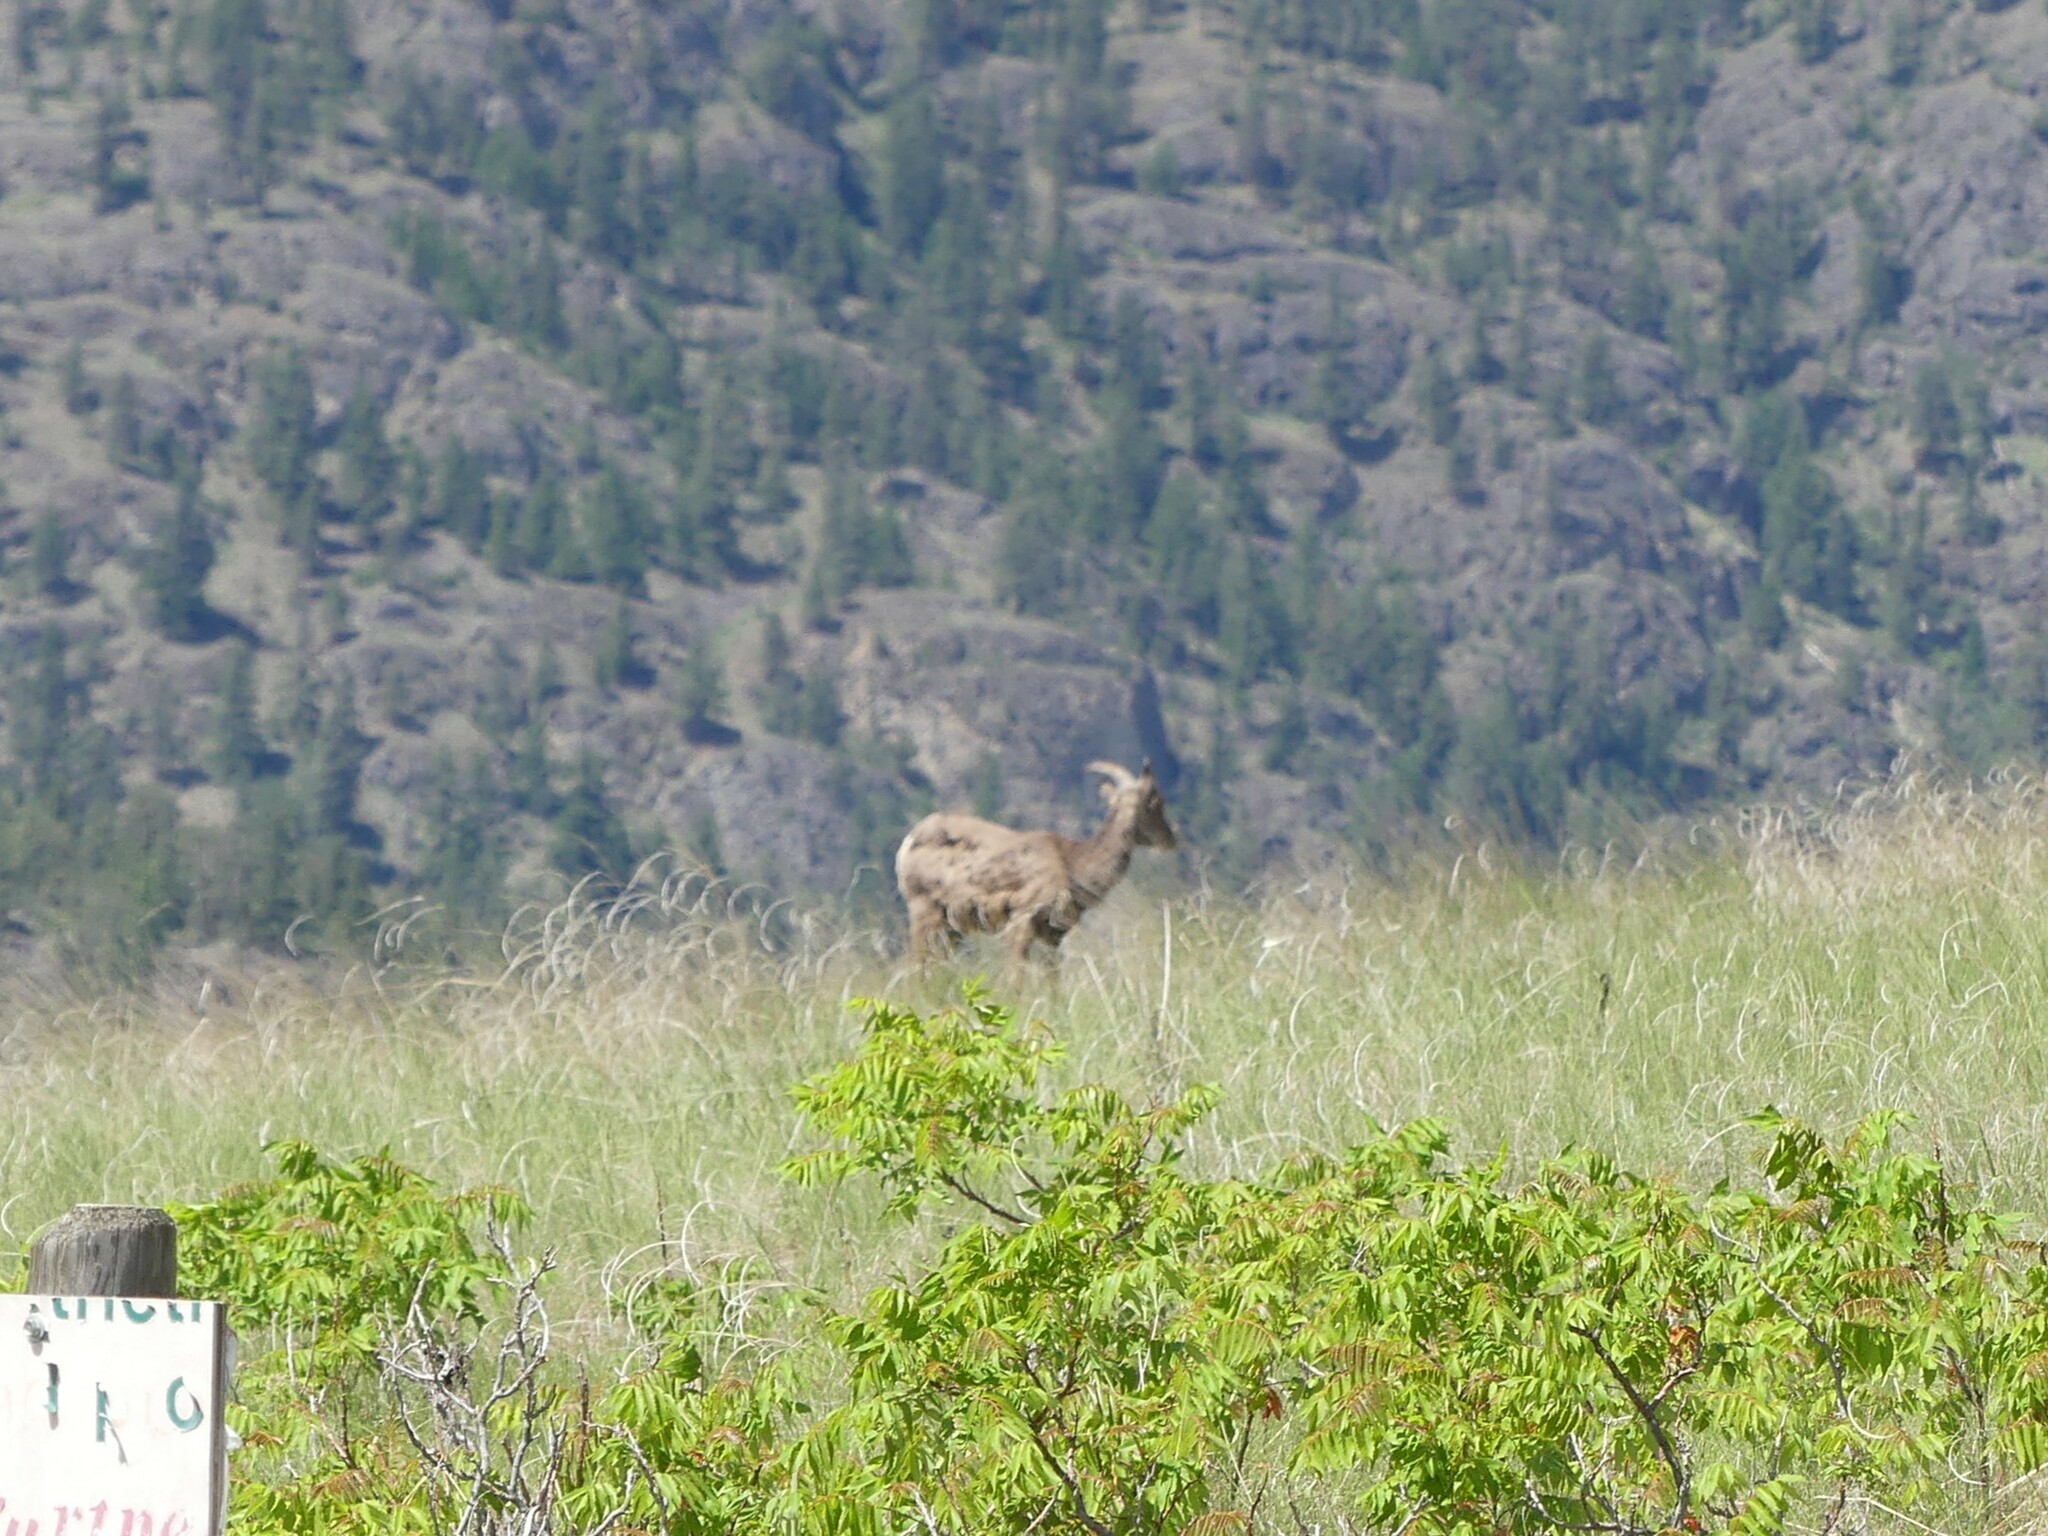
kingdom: Animalia
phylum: Chordata
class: Mammalia
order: Artiodactyla
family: Bovidae
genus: Ovis
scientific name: Ovis canadensis
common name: Bighorn sheep
